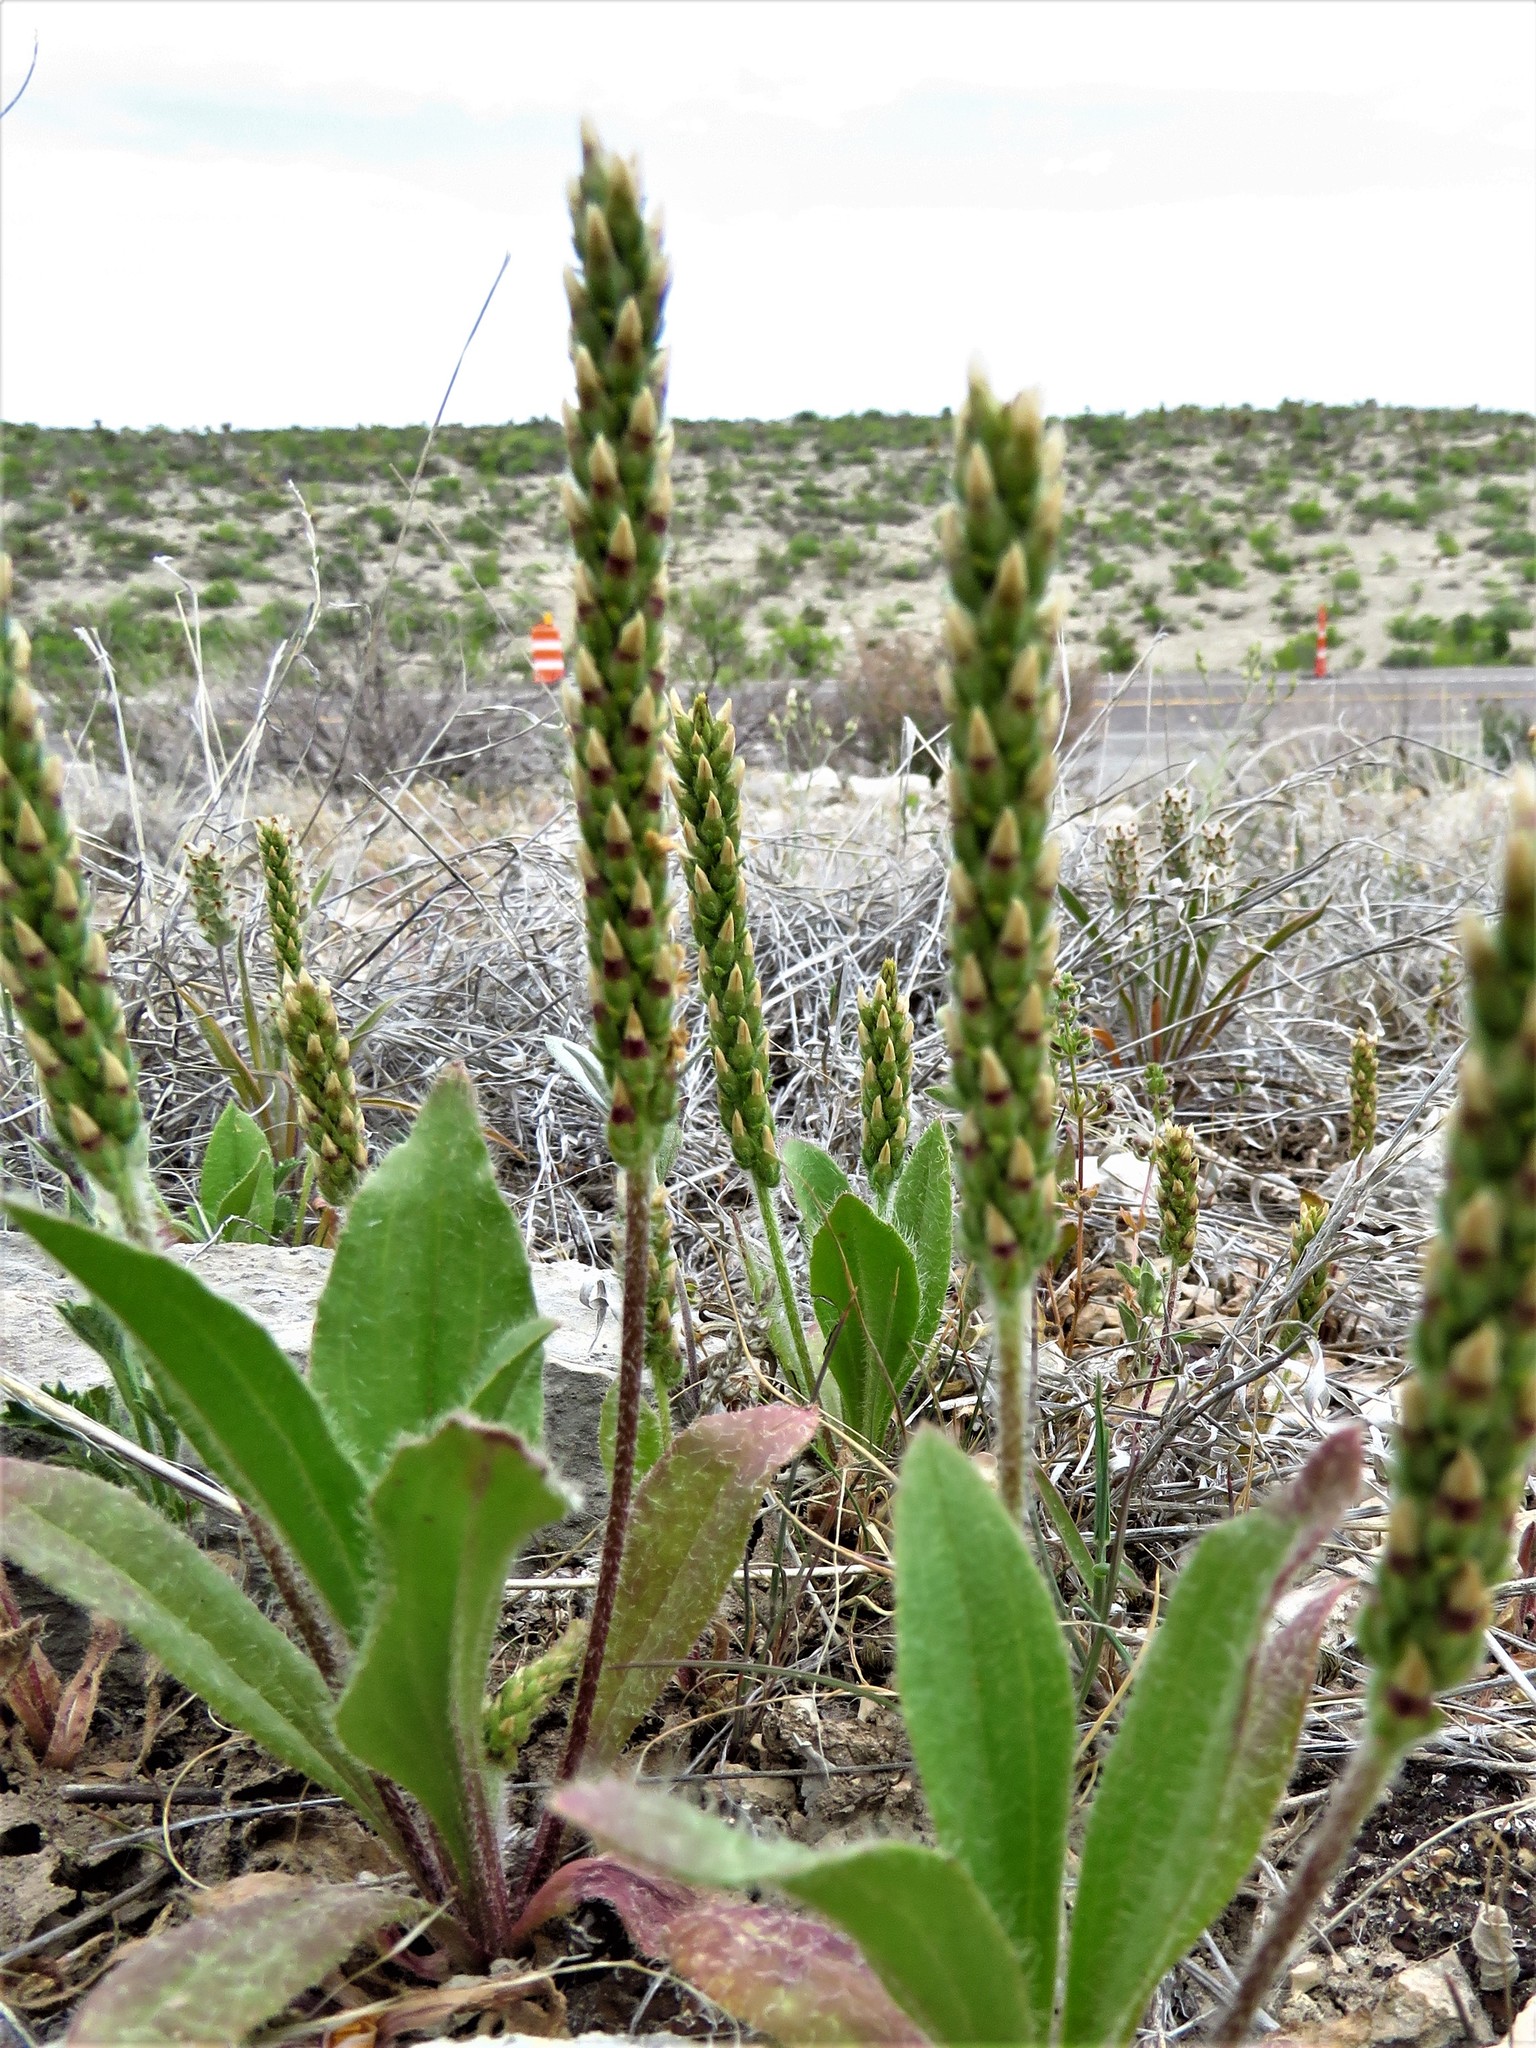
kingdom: Plantae
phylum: Tracheophyta
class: Magnoliopsida
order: Lamiales
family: Plantaginaceae
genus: Plantago
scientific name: Plantago rhodosperma
